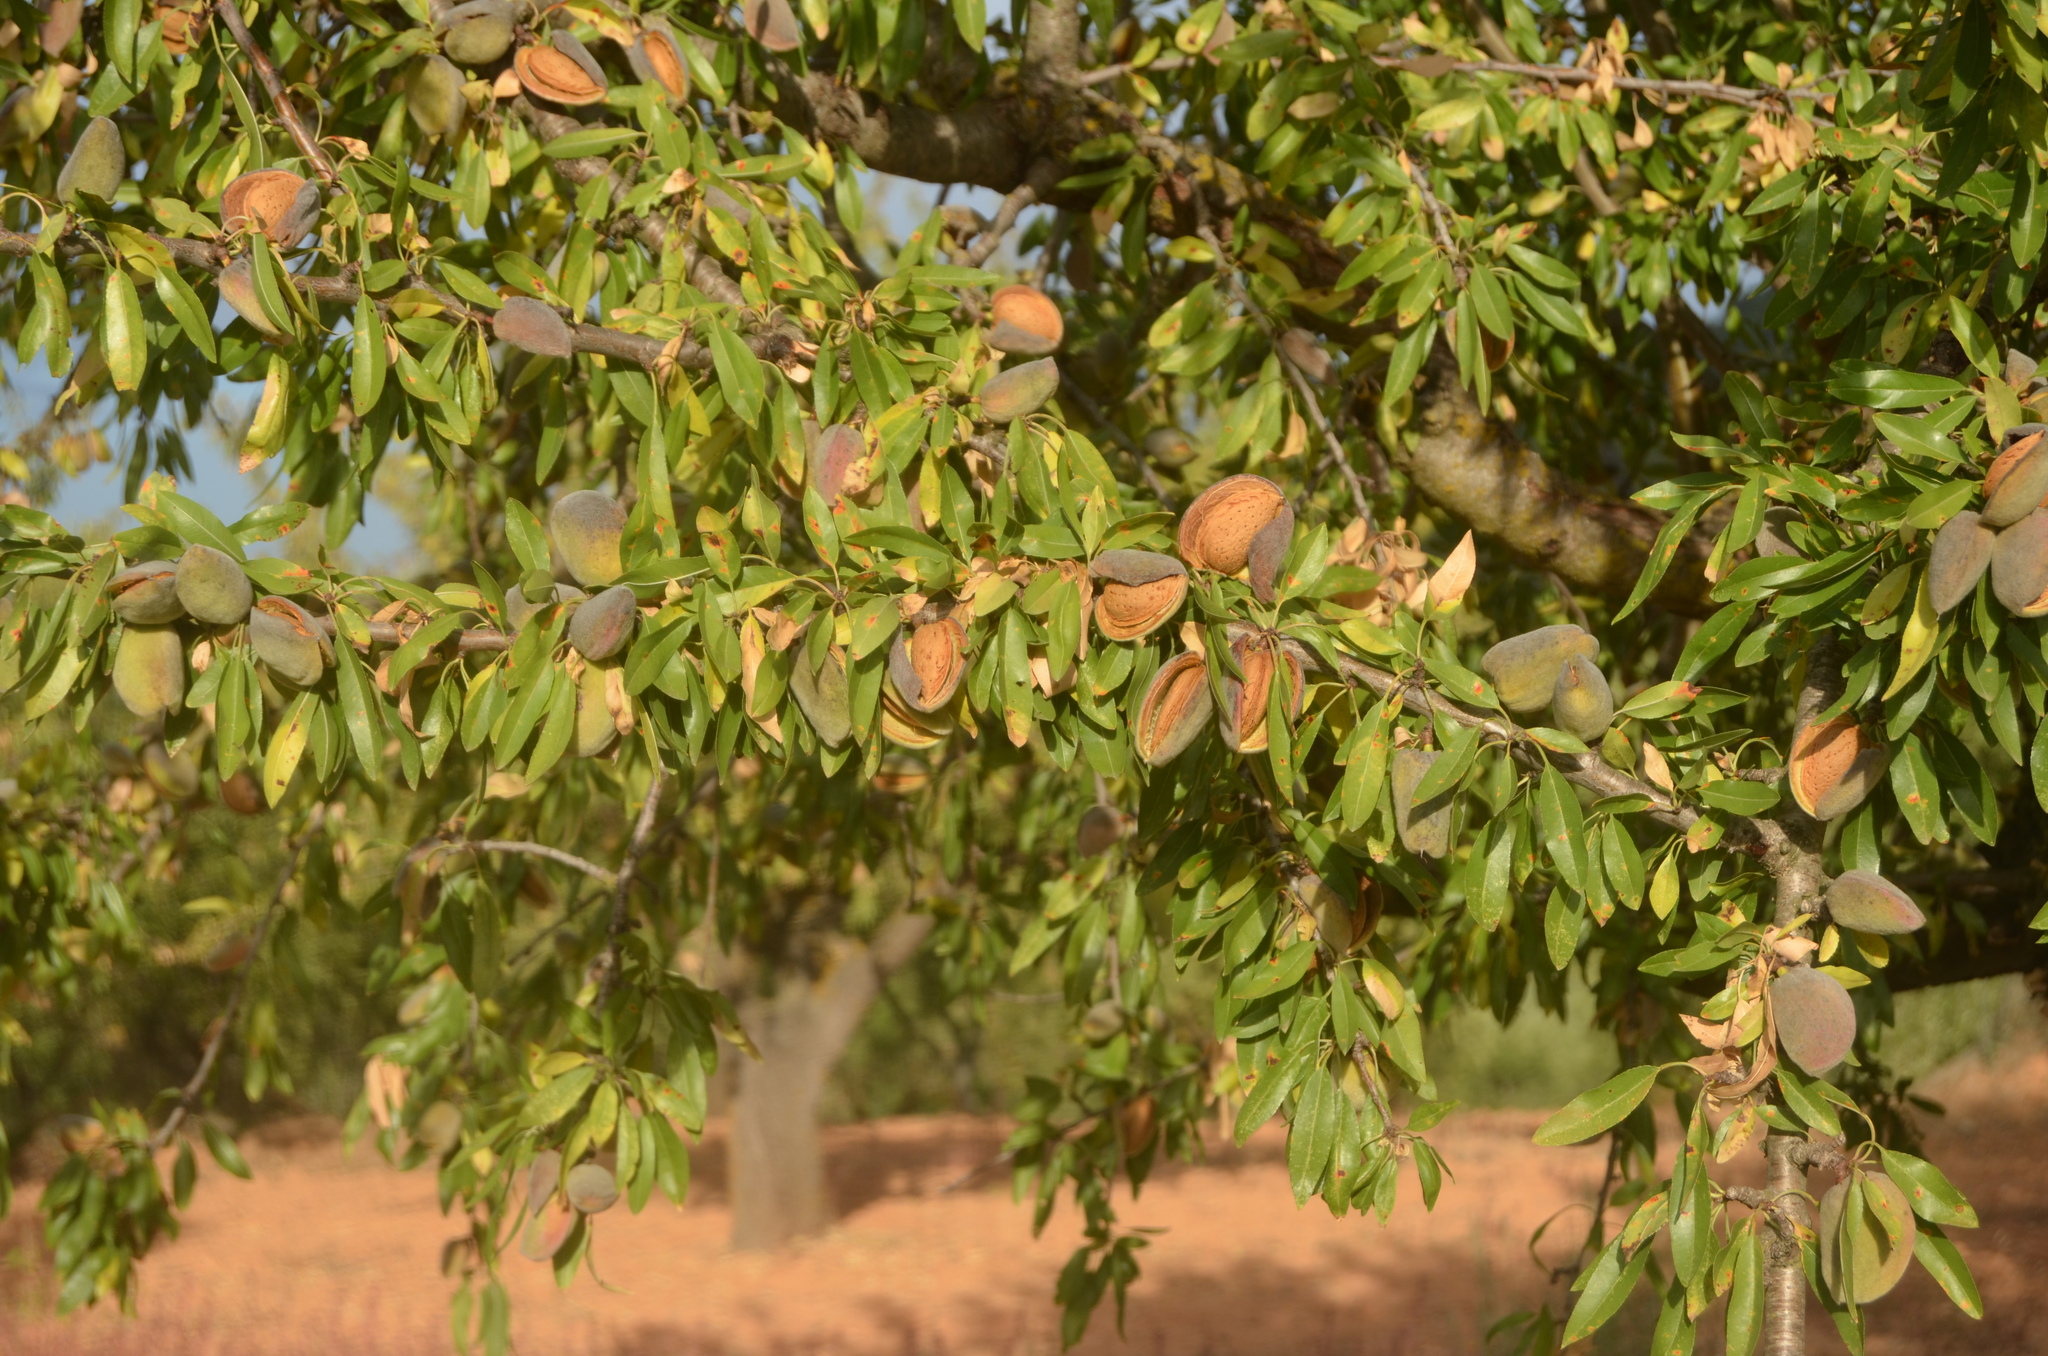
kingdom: Plantae
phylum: Tracheophyta
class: Magnoliopsida
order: Rosales
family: Rosaceae
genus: Prunus
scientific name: Prunus amygdalus
